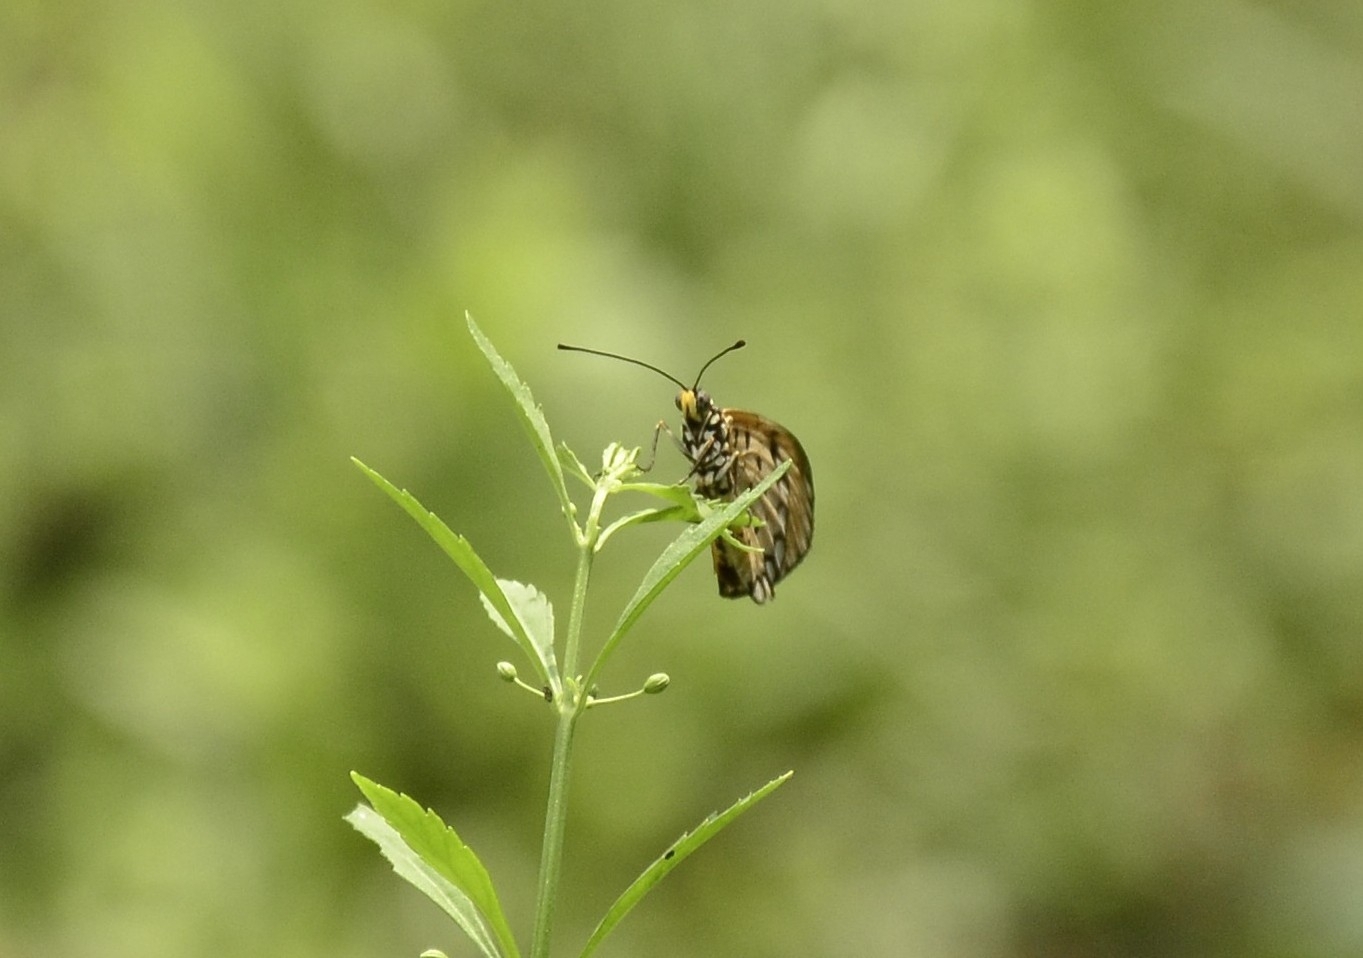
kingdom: Animalia
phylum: Arthropoda
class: Insecta
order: Lepidoptera
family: Nymphalidae
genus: Acraea
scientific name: Acraea terpsicore
